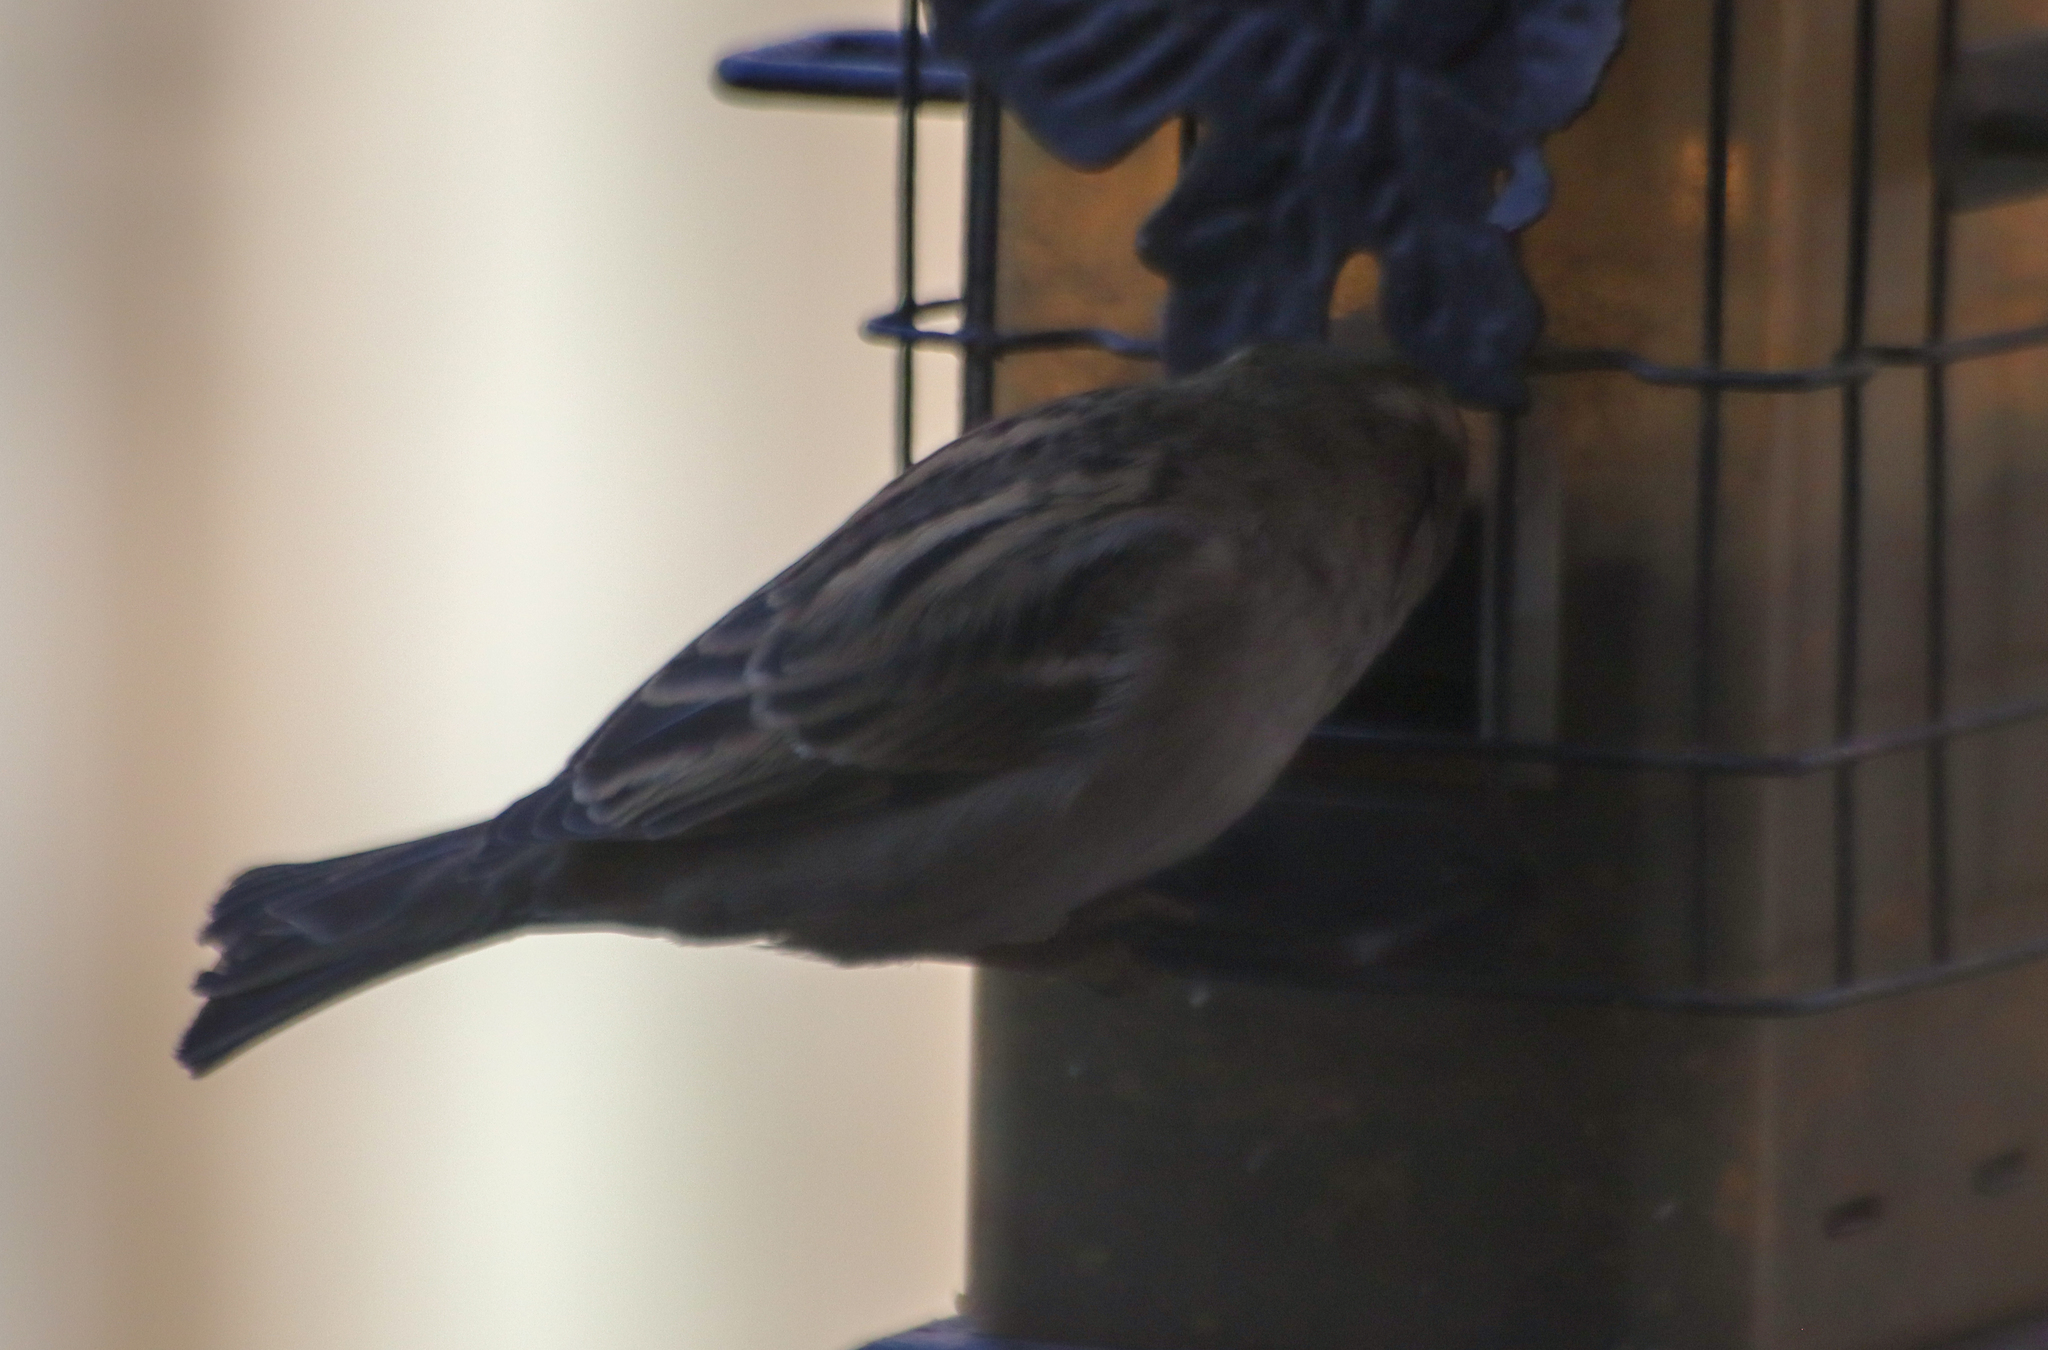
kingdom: Animalia
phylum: Chordata
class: Aves
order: Passeriformes
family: Passeridae
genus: Passer
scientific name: Passer domesticus
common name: House sparrow
